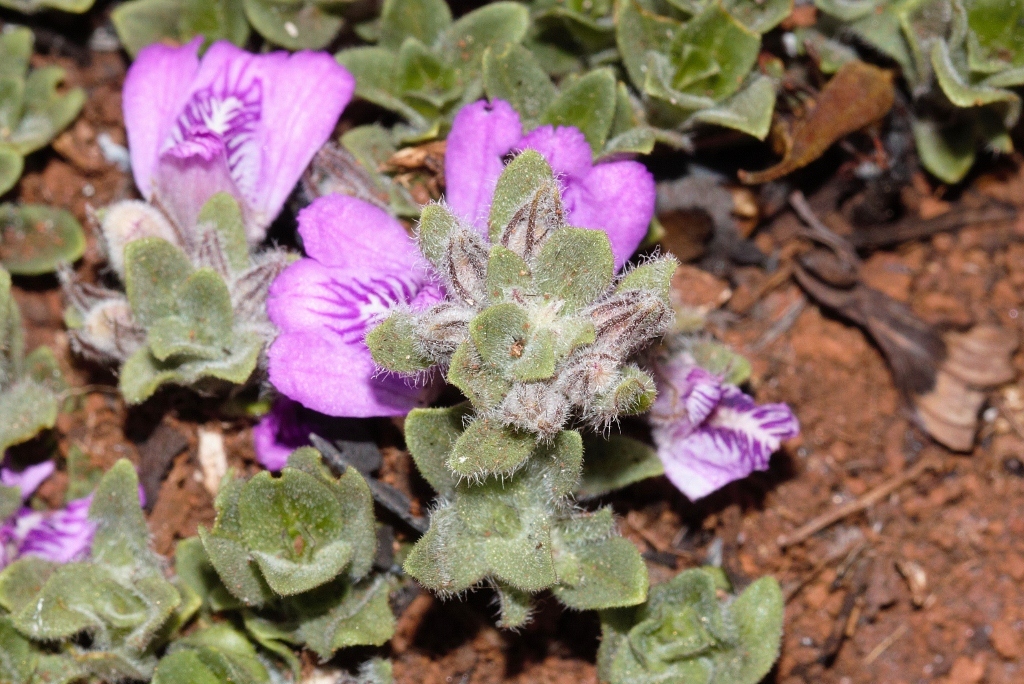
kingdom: Plantae
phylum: Tracheophyta
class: Magnoliopsida
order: Lamiales
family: Acanthaceae
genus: Justicia
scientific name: Justicia elegantula
